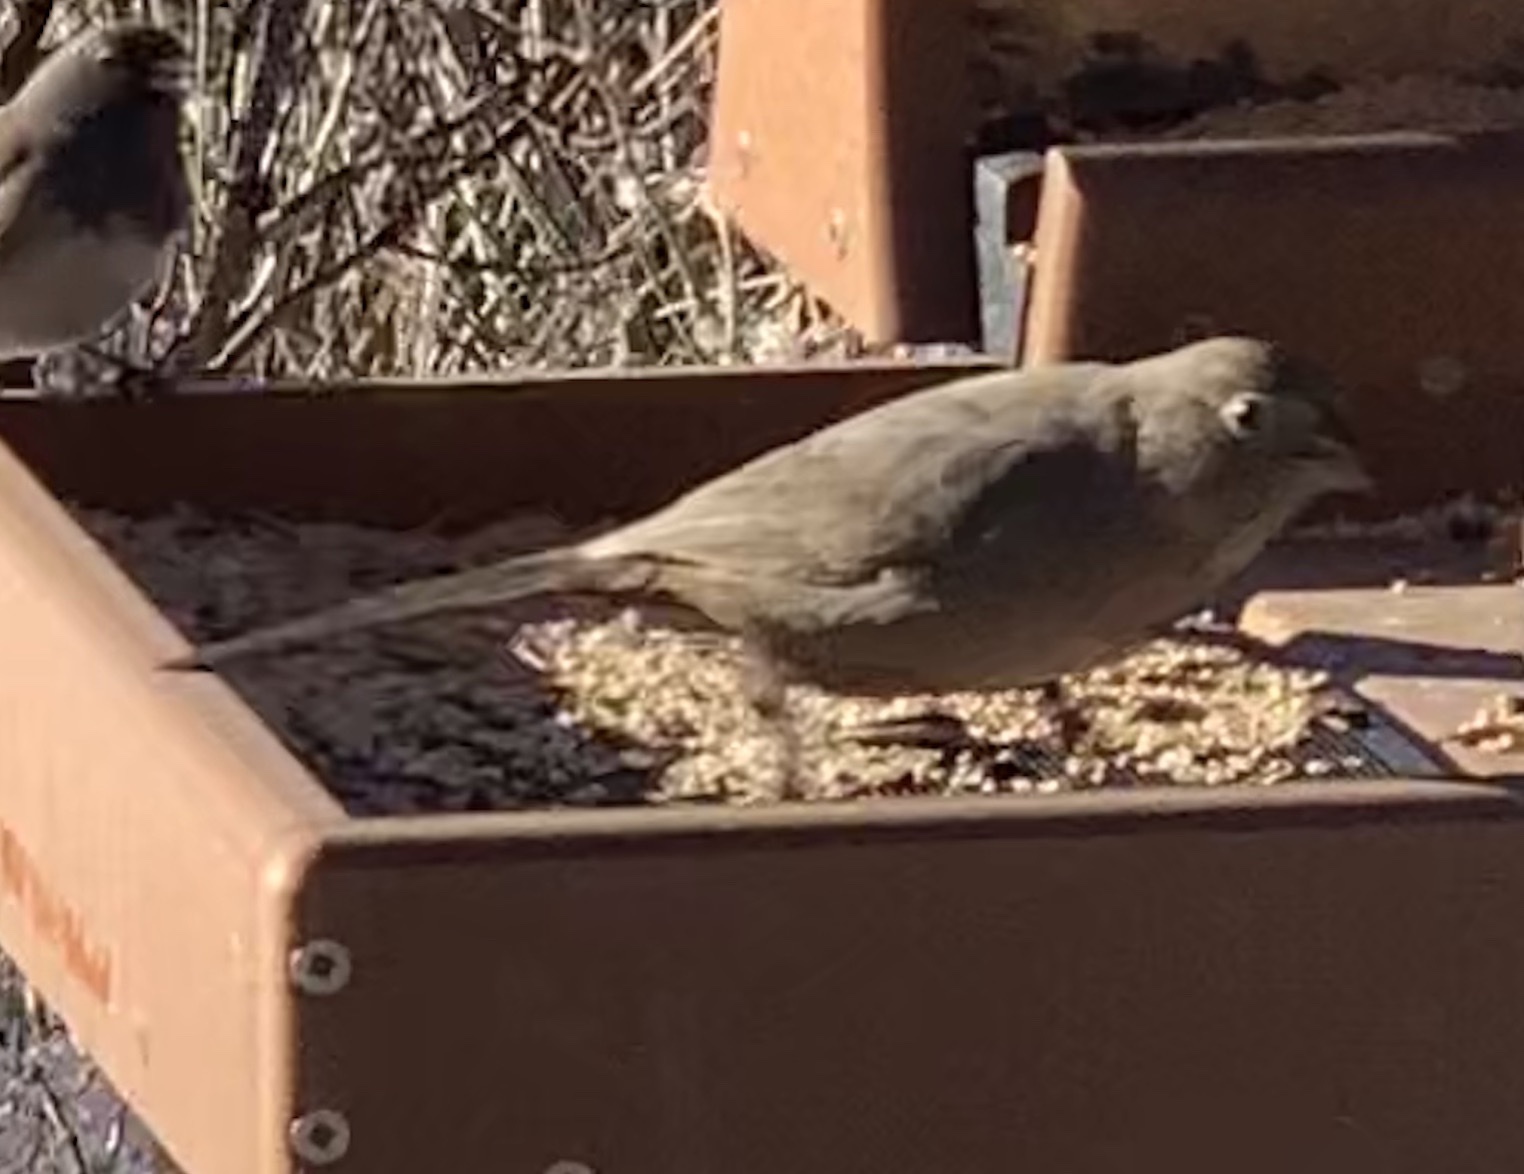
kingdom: Animalia
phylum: Chordata
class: Aves
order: Passeriformes
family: Passerellidae
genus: Melozone
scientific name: Melozone fusca
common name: Canyon towhee
